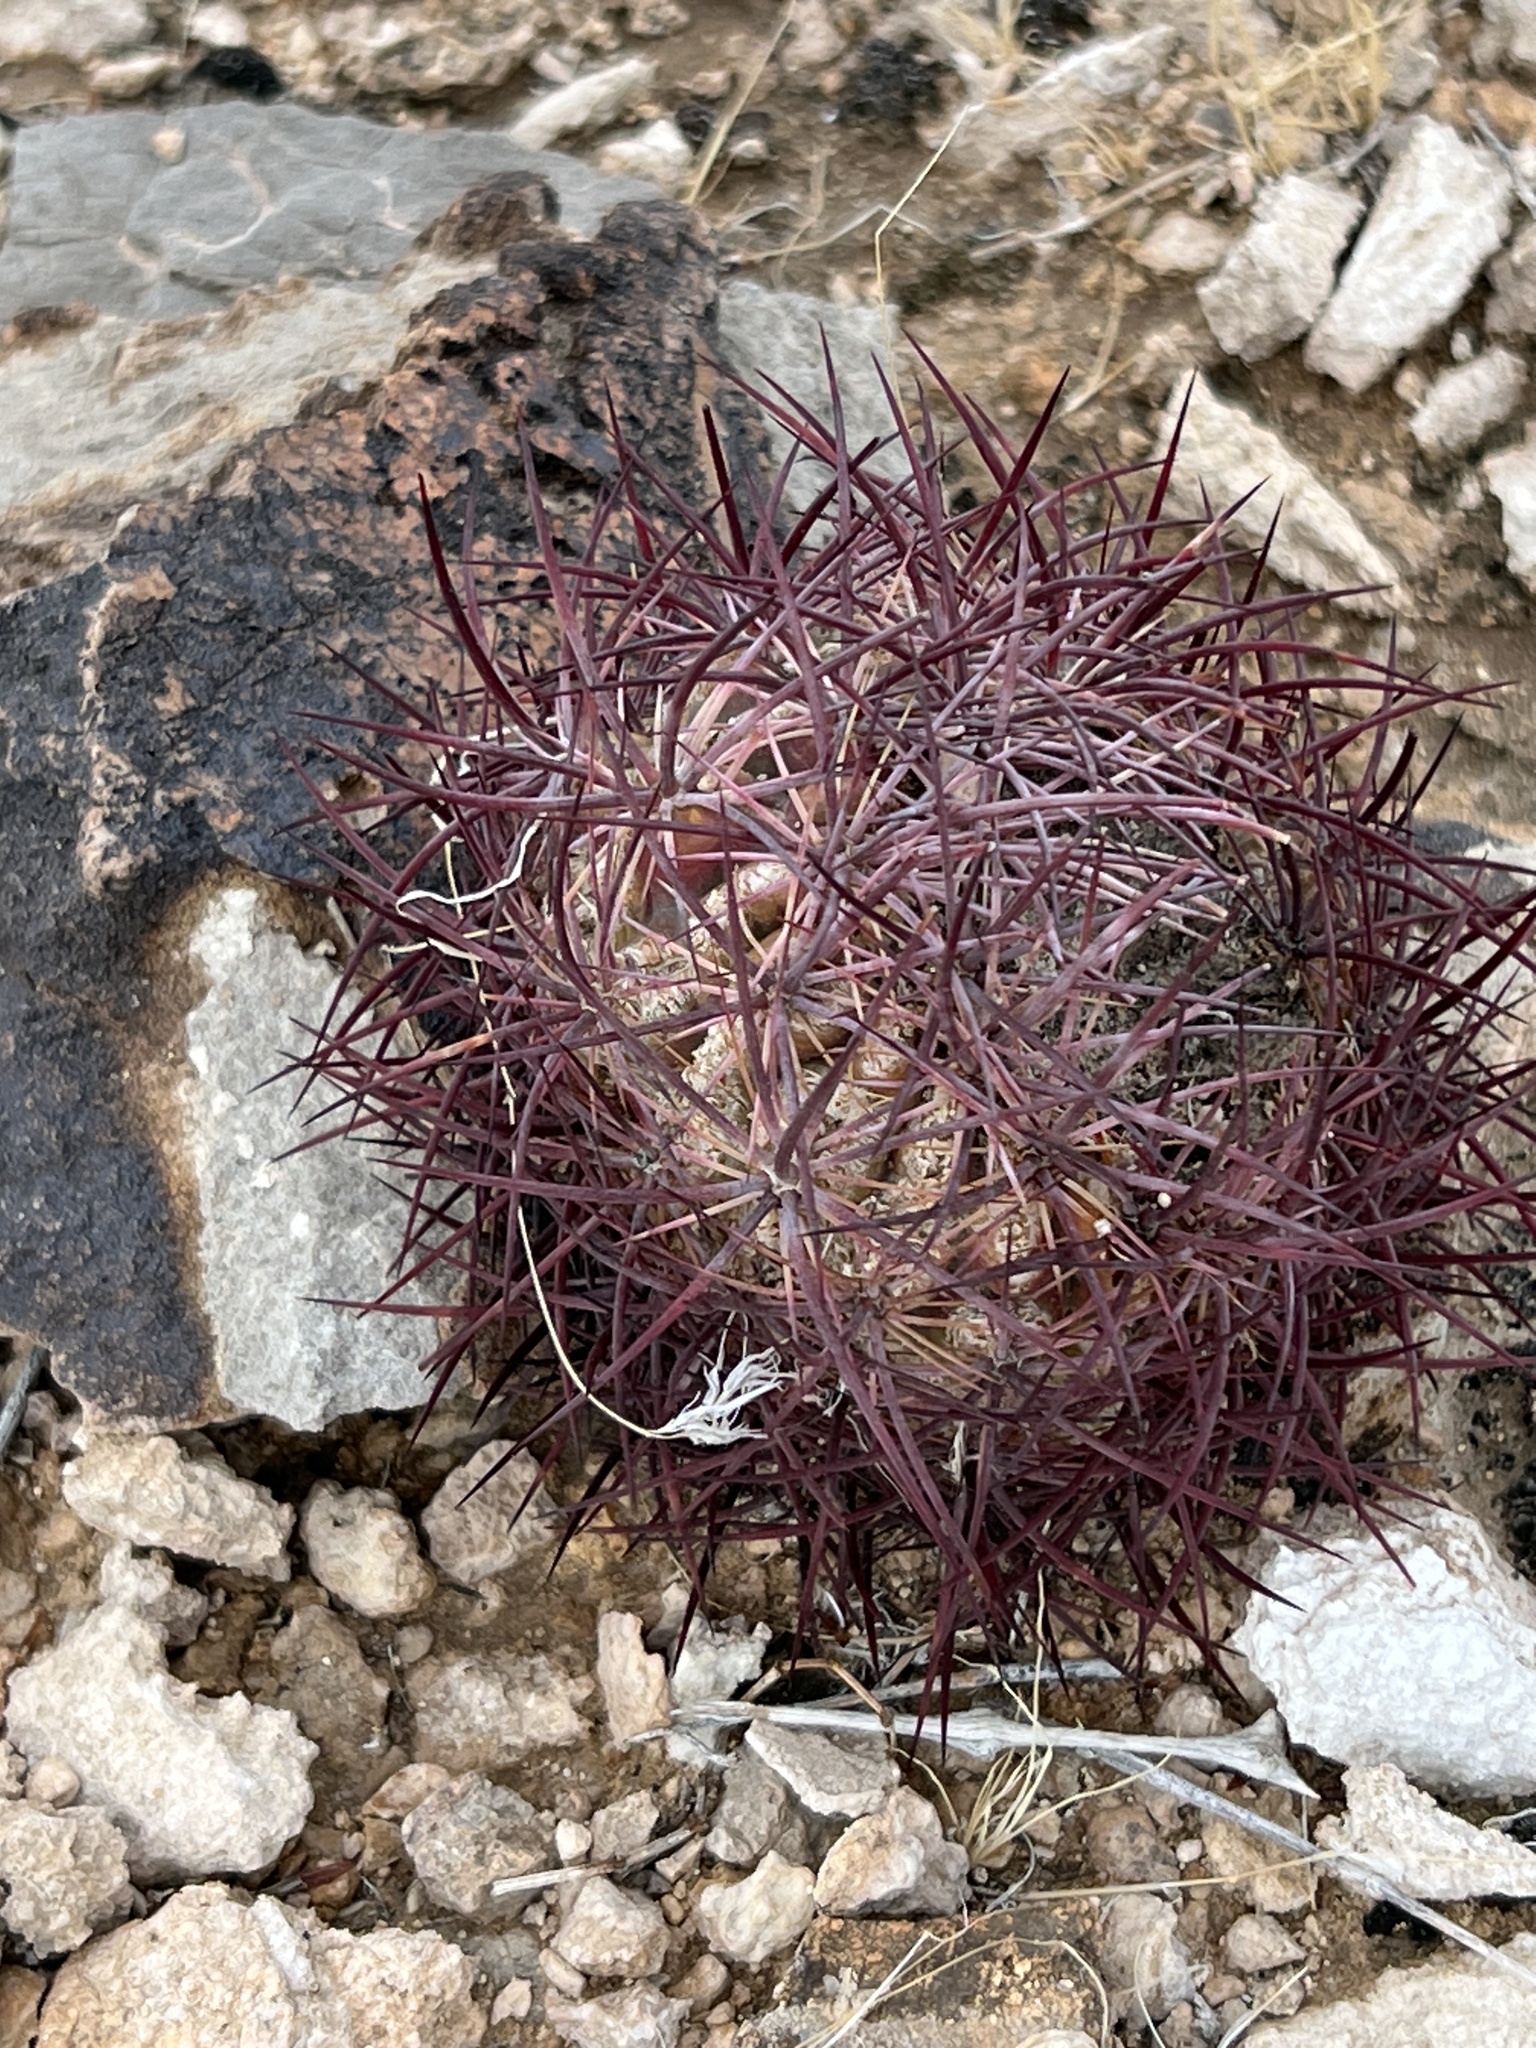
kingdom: Plantae
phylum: Tracheophyta
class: Magnoliopsida
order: Caryophyllales
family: Cactaceae
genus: Sclerocactus
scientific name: Sclerocactus johnsonii
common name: Eight-spine fishhook cactus
